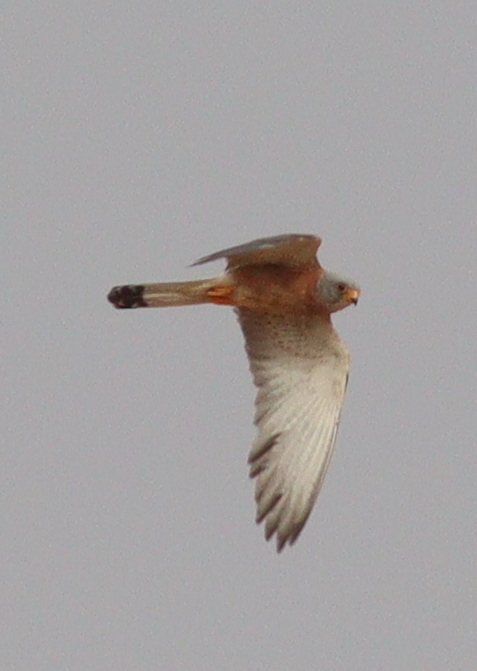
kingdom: Animalia
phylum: Chordata
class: Aves
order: Falconiformes
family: Falconidae
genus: Falco
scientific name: Falco naumanni
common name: Lesser kestrel
